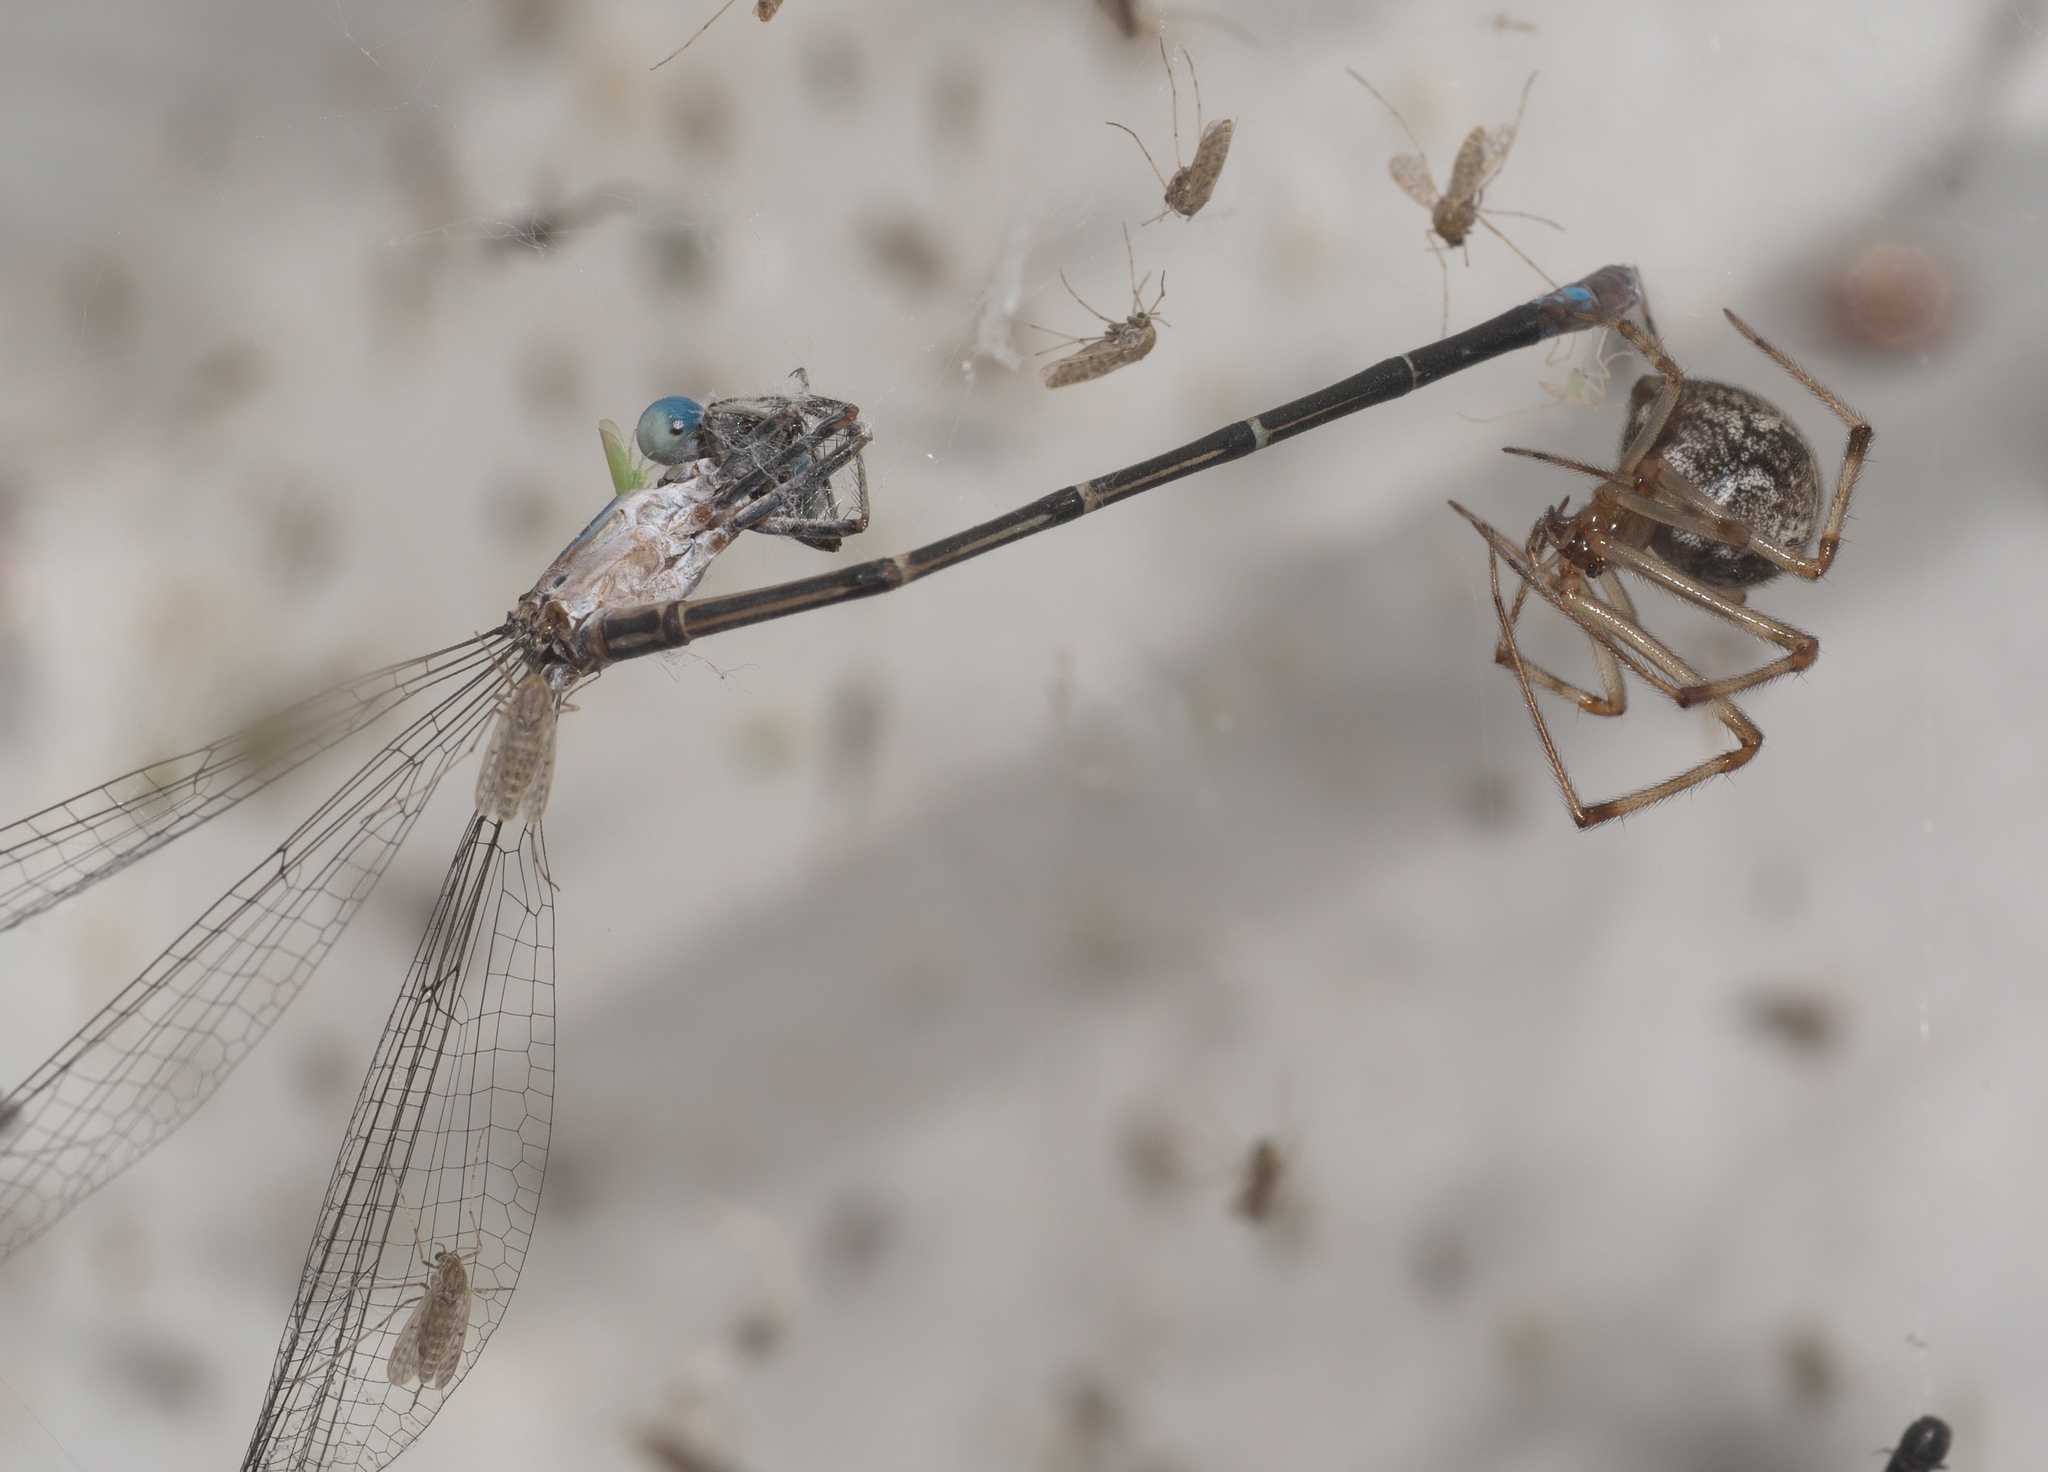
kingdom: Animalia
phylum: Arthropoda
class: Arachnida
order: Araneae
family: Theridiidae
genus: Parasteatoda
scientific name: Parasteatoda tepidariorum
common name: Common house spider
